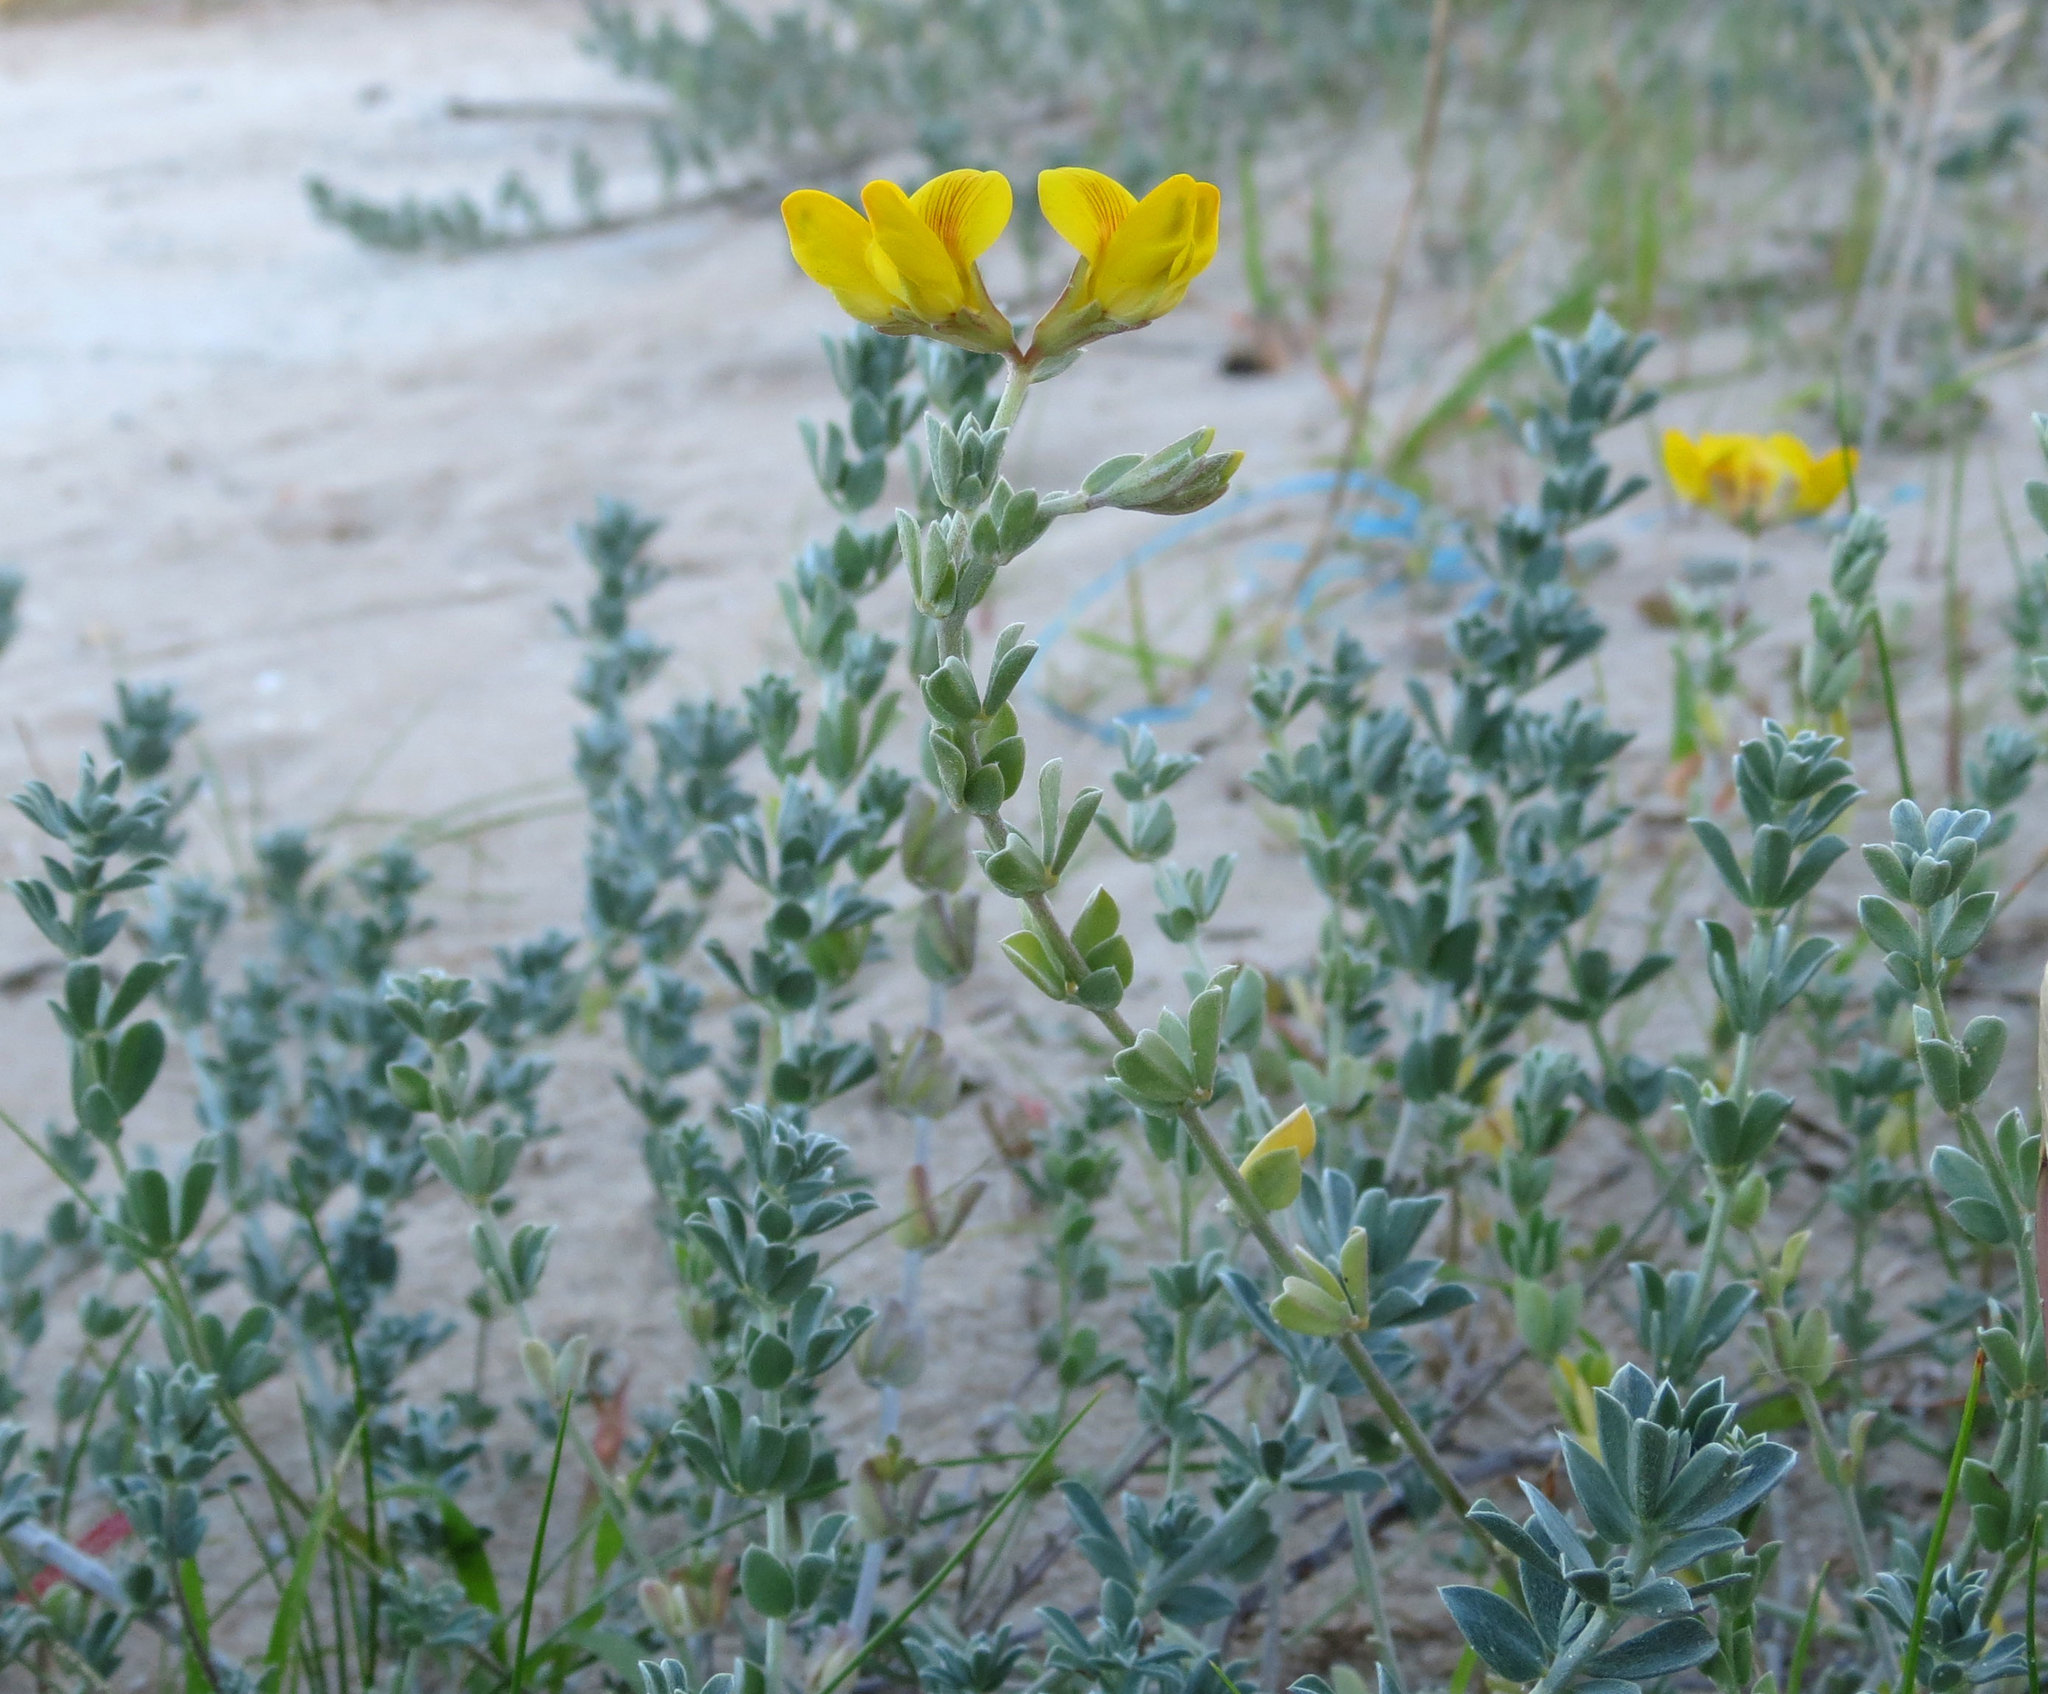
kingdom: Plantae
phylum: Tracheophyta
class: Magnoliopsida
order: Fabales
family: Fabaceae
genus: Medicago
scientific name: Medicago marina
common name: Sea medick
